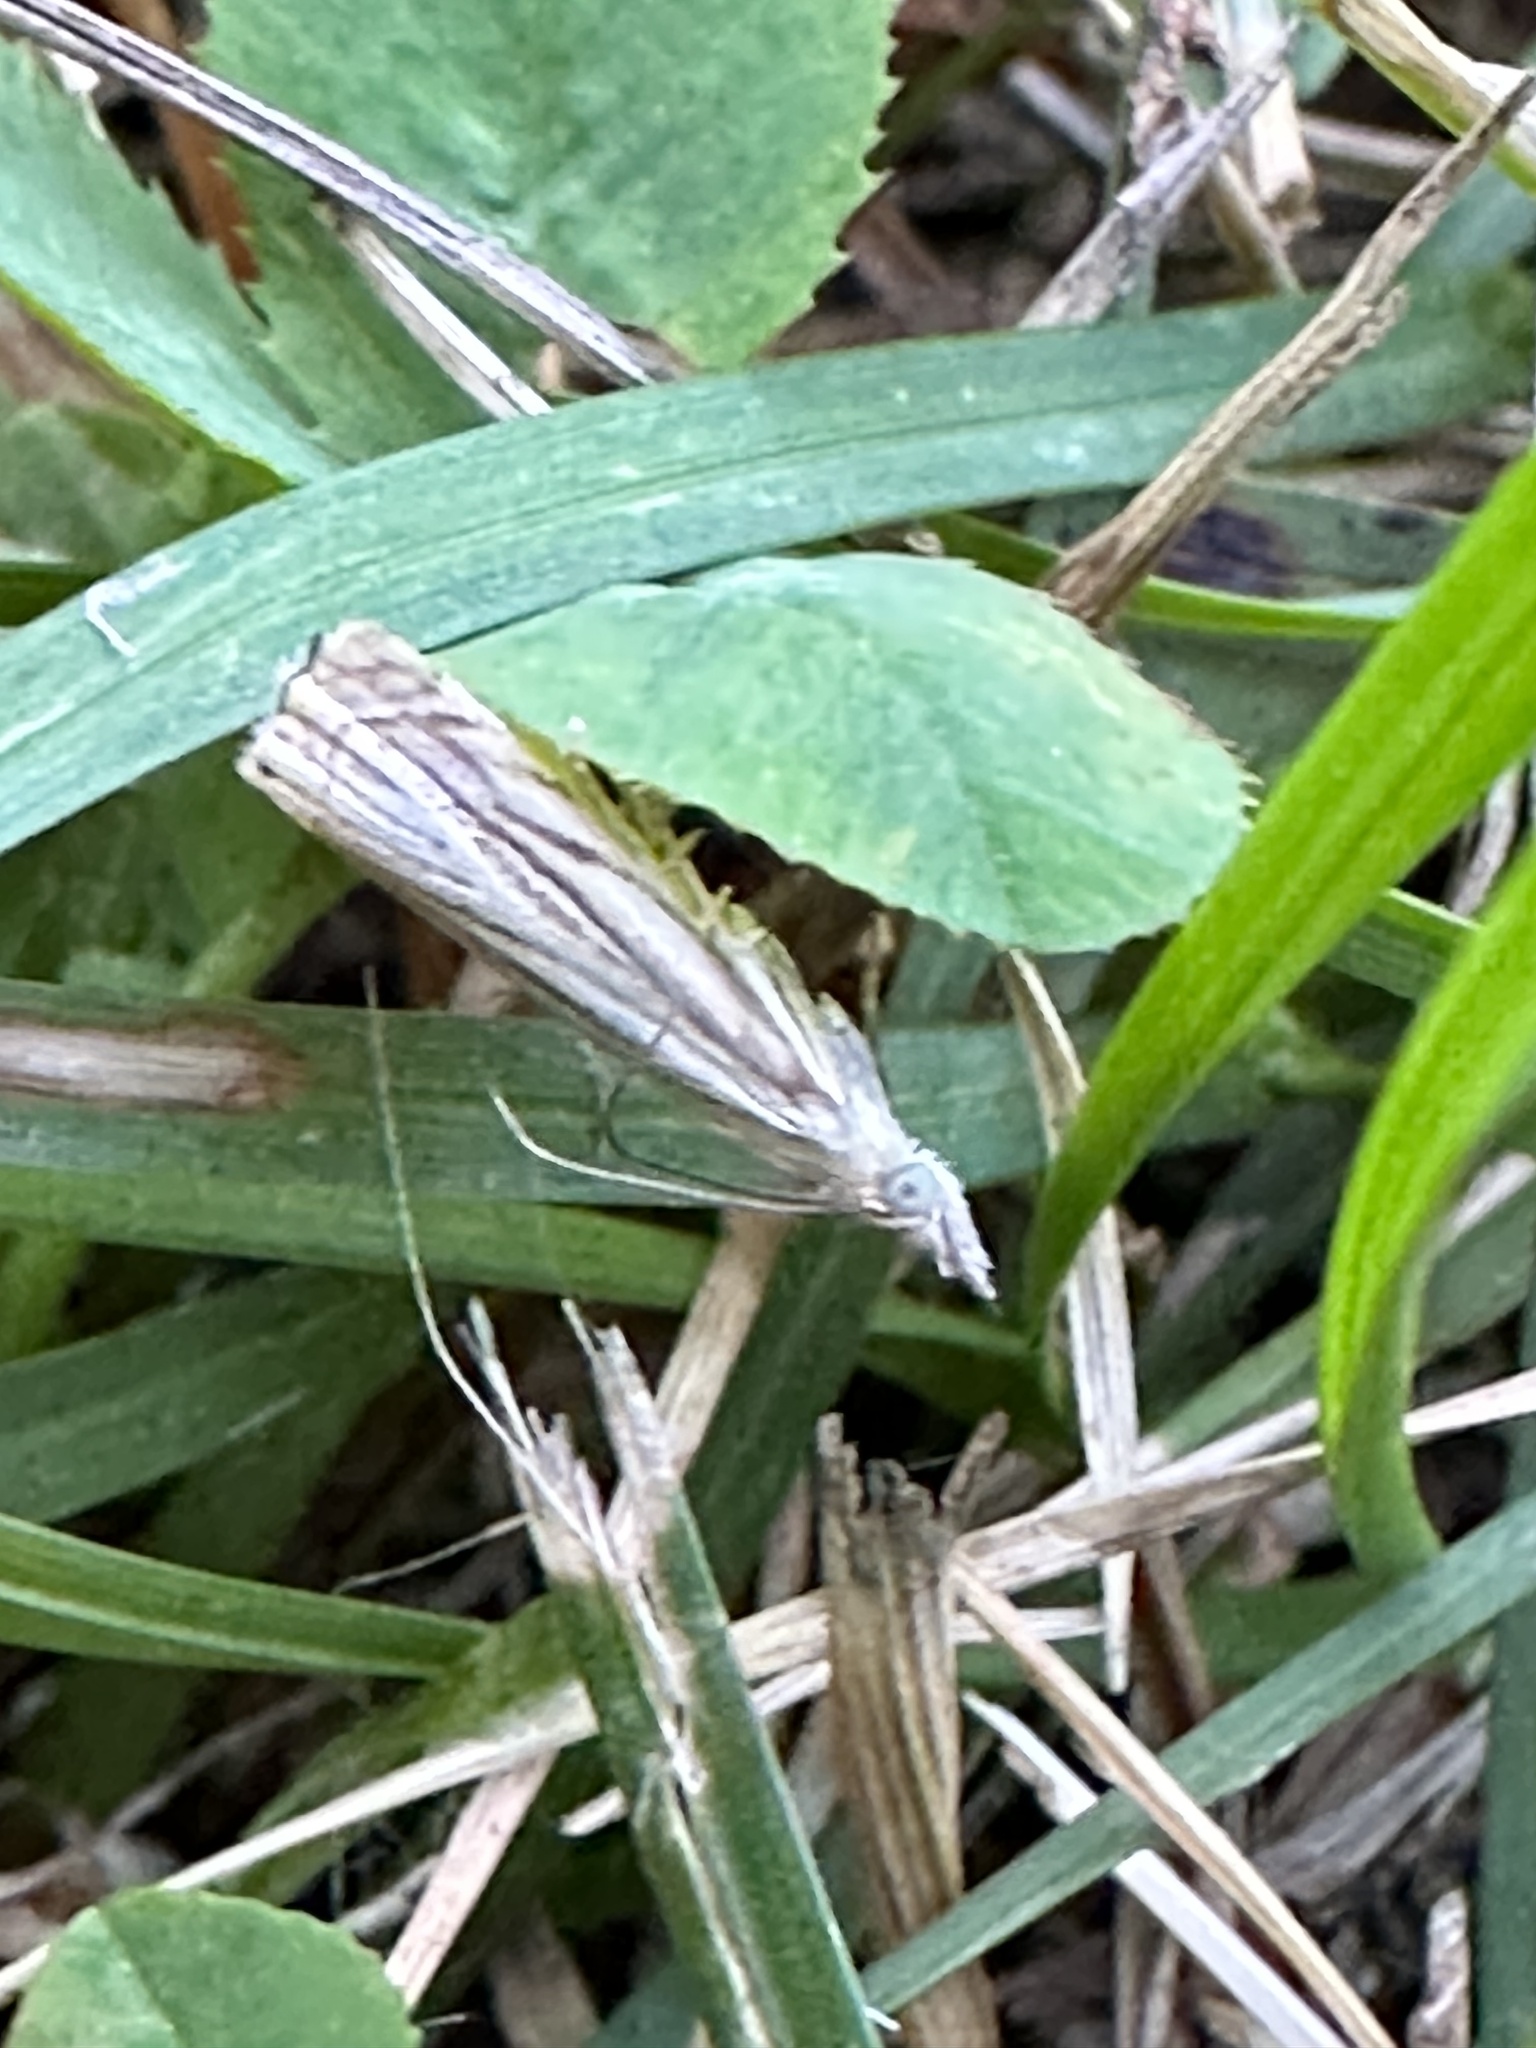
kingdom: Animalia
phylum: Arthropoda
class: Insecta
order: Lepidoptera
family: Crambidae
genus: Chrysoteuchia
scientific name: Chrysoteuchia topiarius
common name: Topiary grass-veneer
